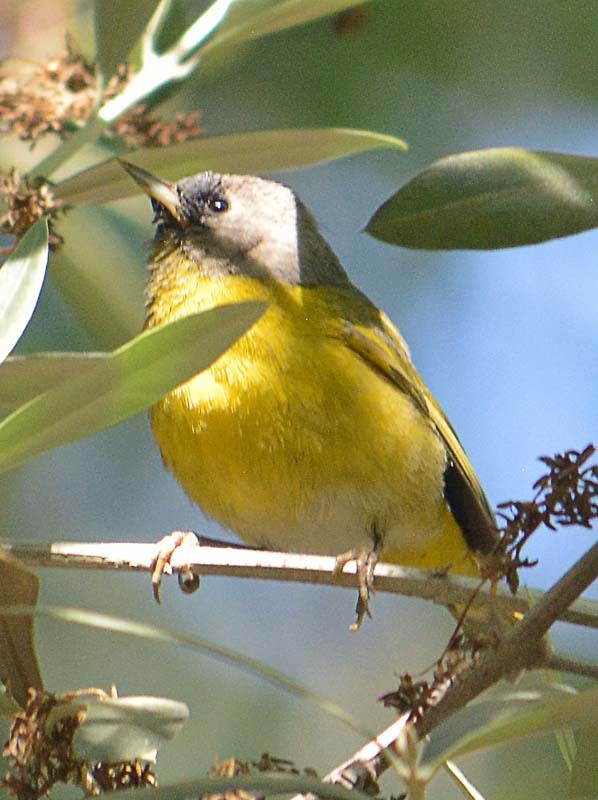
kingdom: Animalia
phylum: Chordata
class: Aves
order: Passeriformes
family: Parulidae
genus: Leiothlypis
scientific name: Leiothlypis ruficapilla
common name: Nashville warbler
